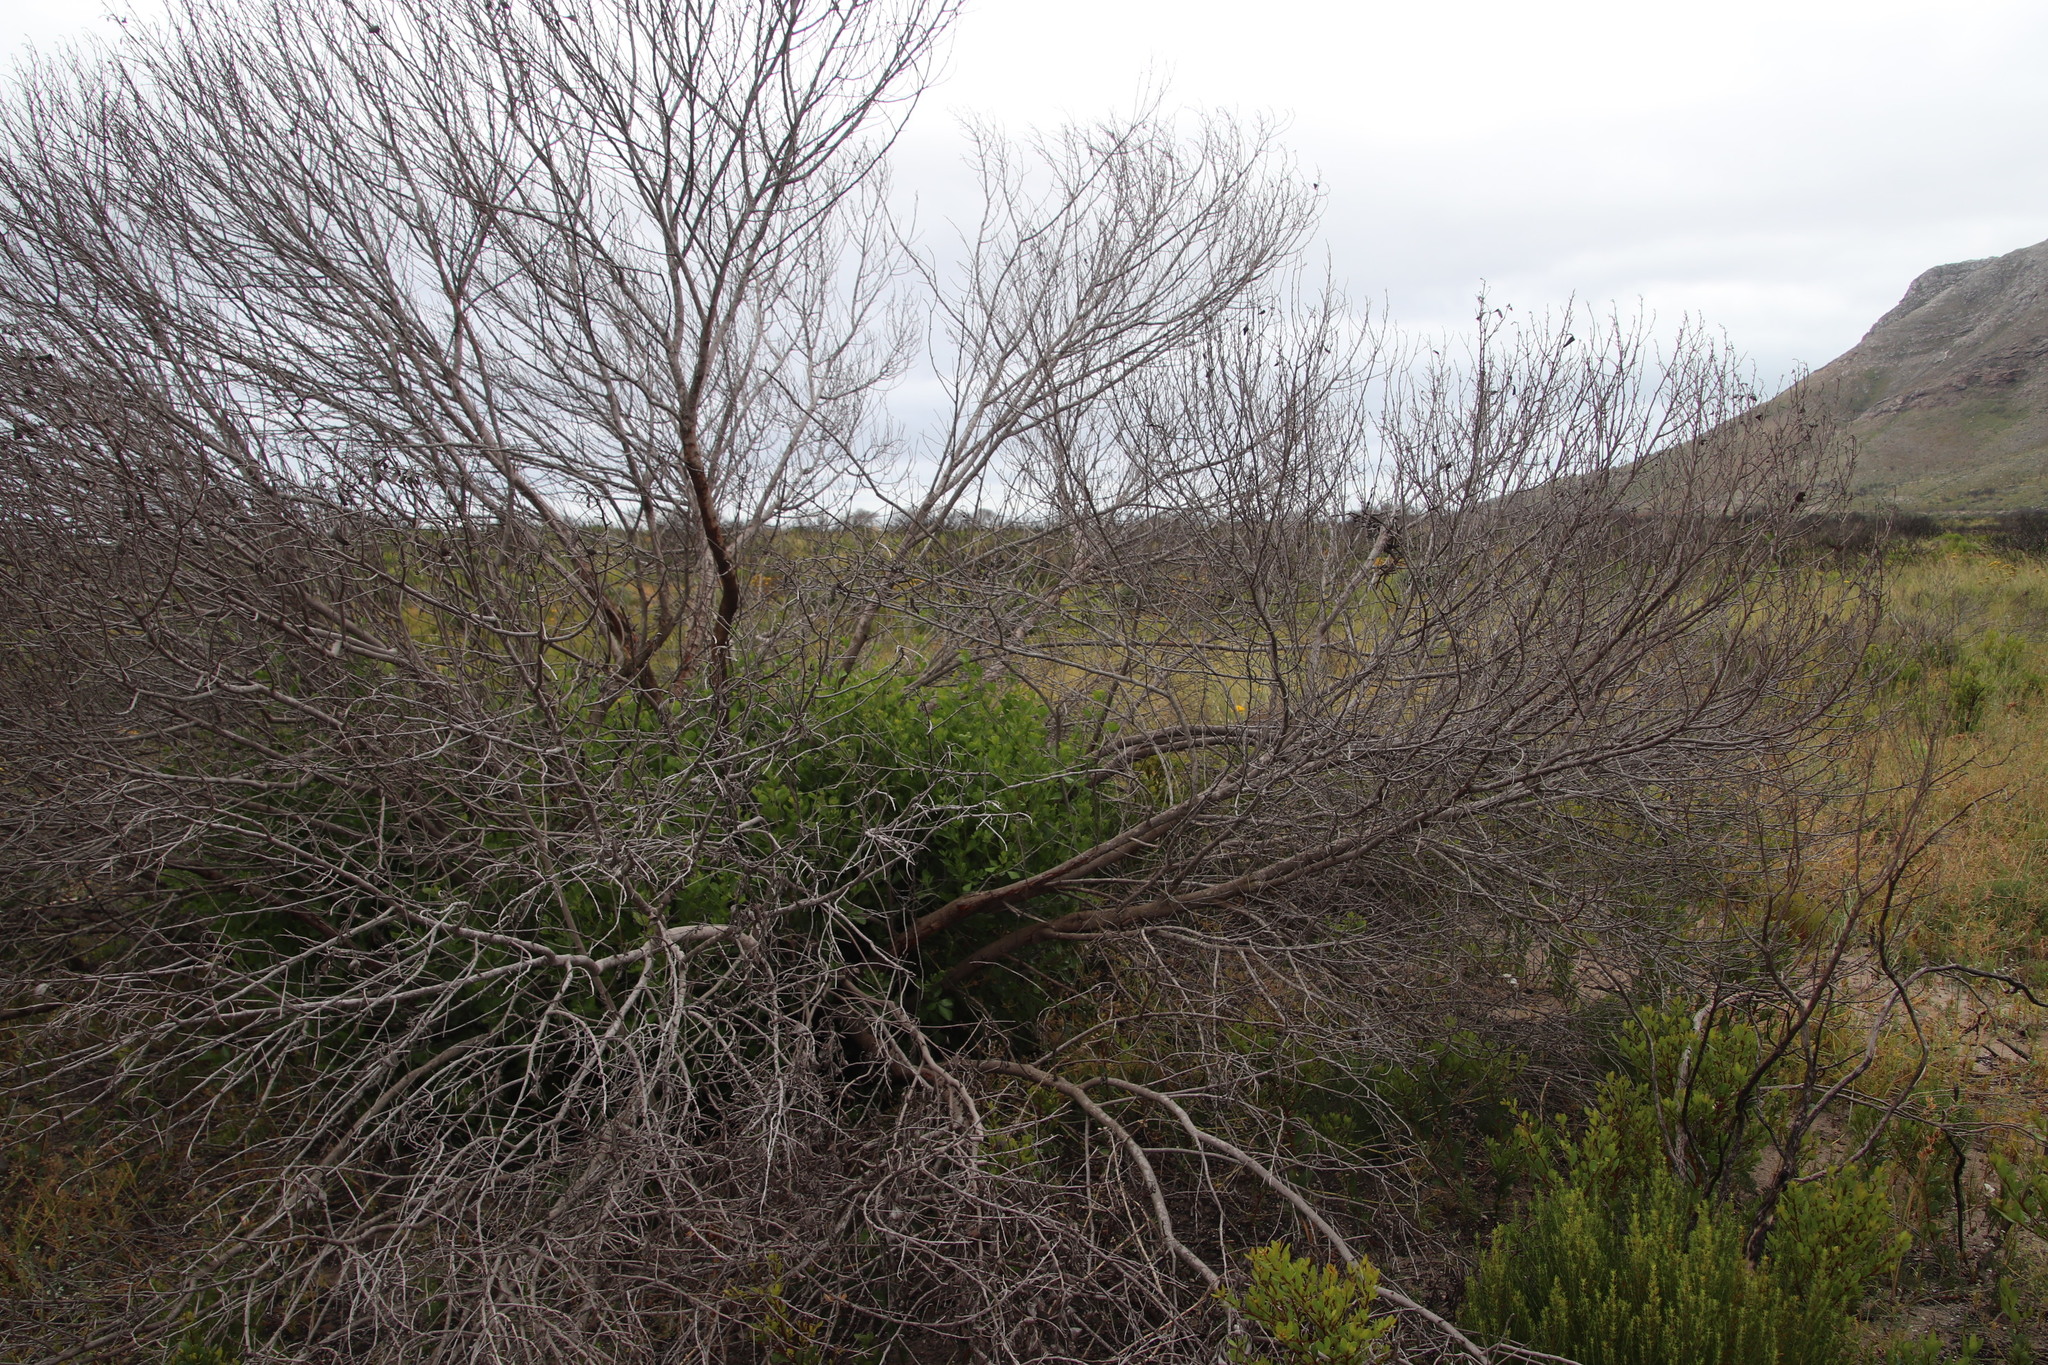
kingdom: Plantae
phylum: Tracheophyta
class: Magnoliopsida
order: Sapindales
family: Anacardiaceae
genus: Searsia
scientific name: Searsia lucida
